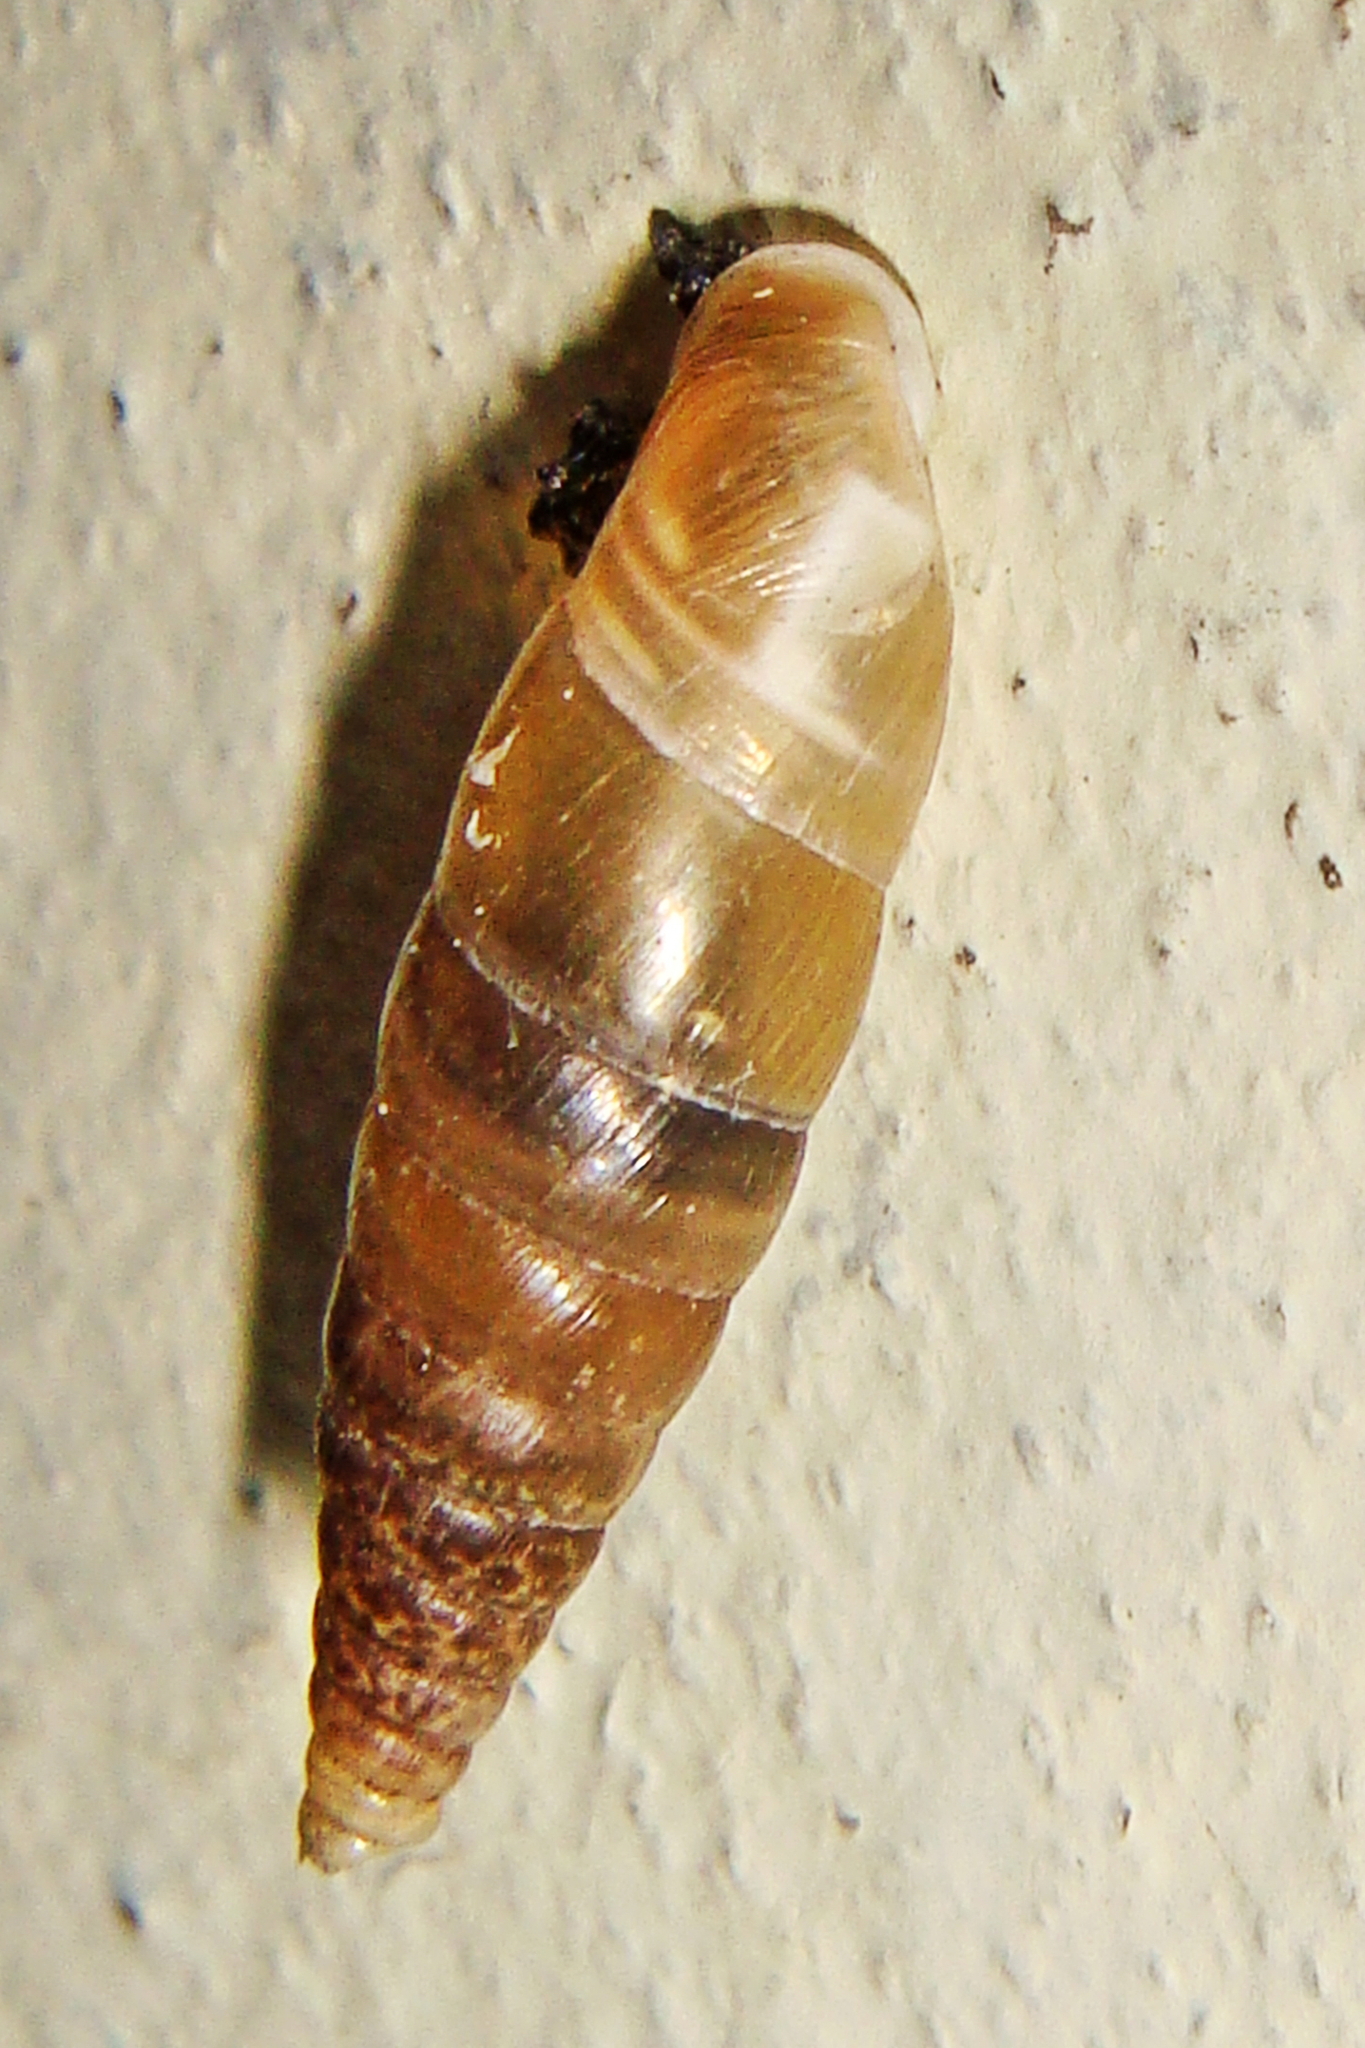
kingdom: Animalia
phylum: Mollusca
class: Gastropoda
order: Stylommatophora
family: Clausiliidae
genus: Cochlodina
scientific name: Cochlodina laminata
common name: Plaited door snail
